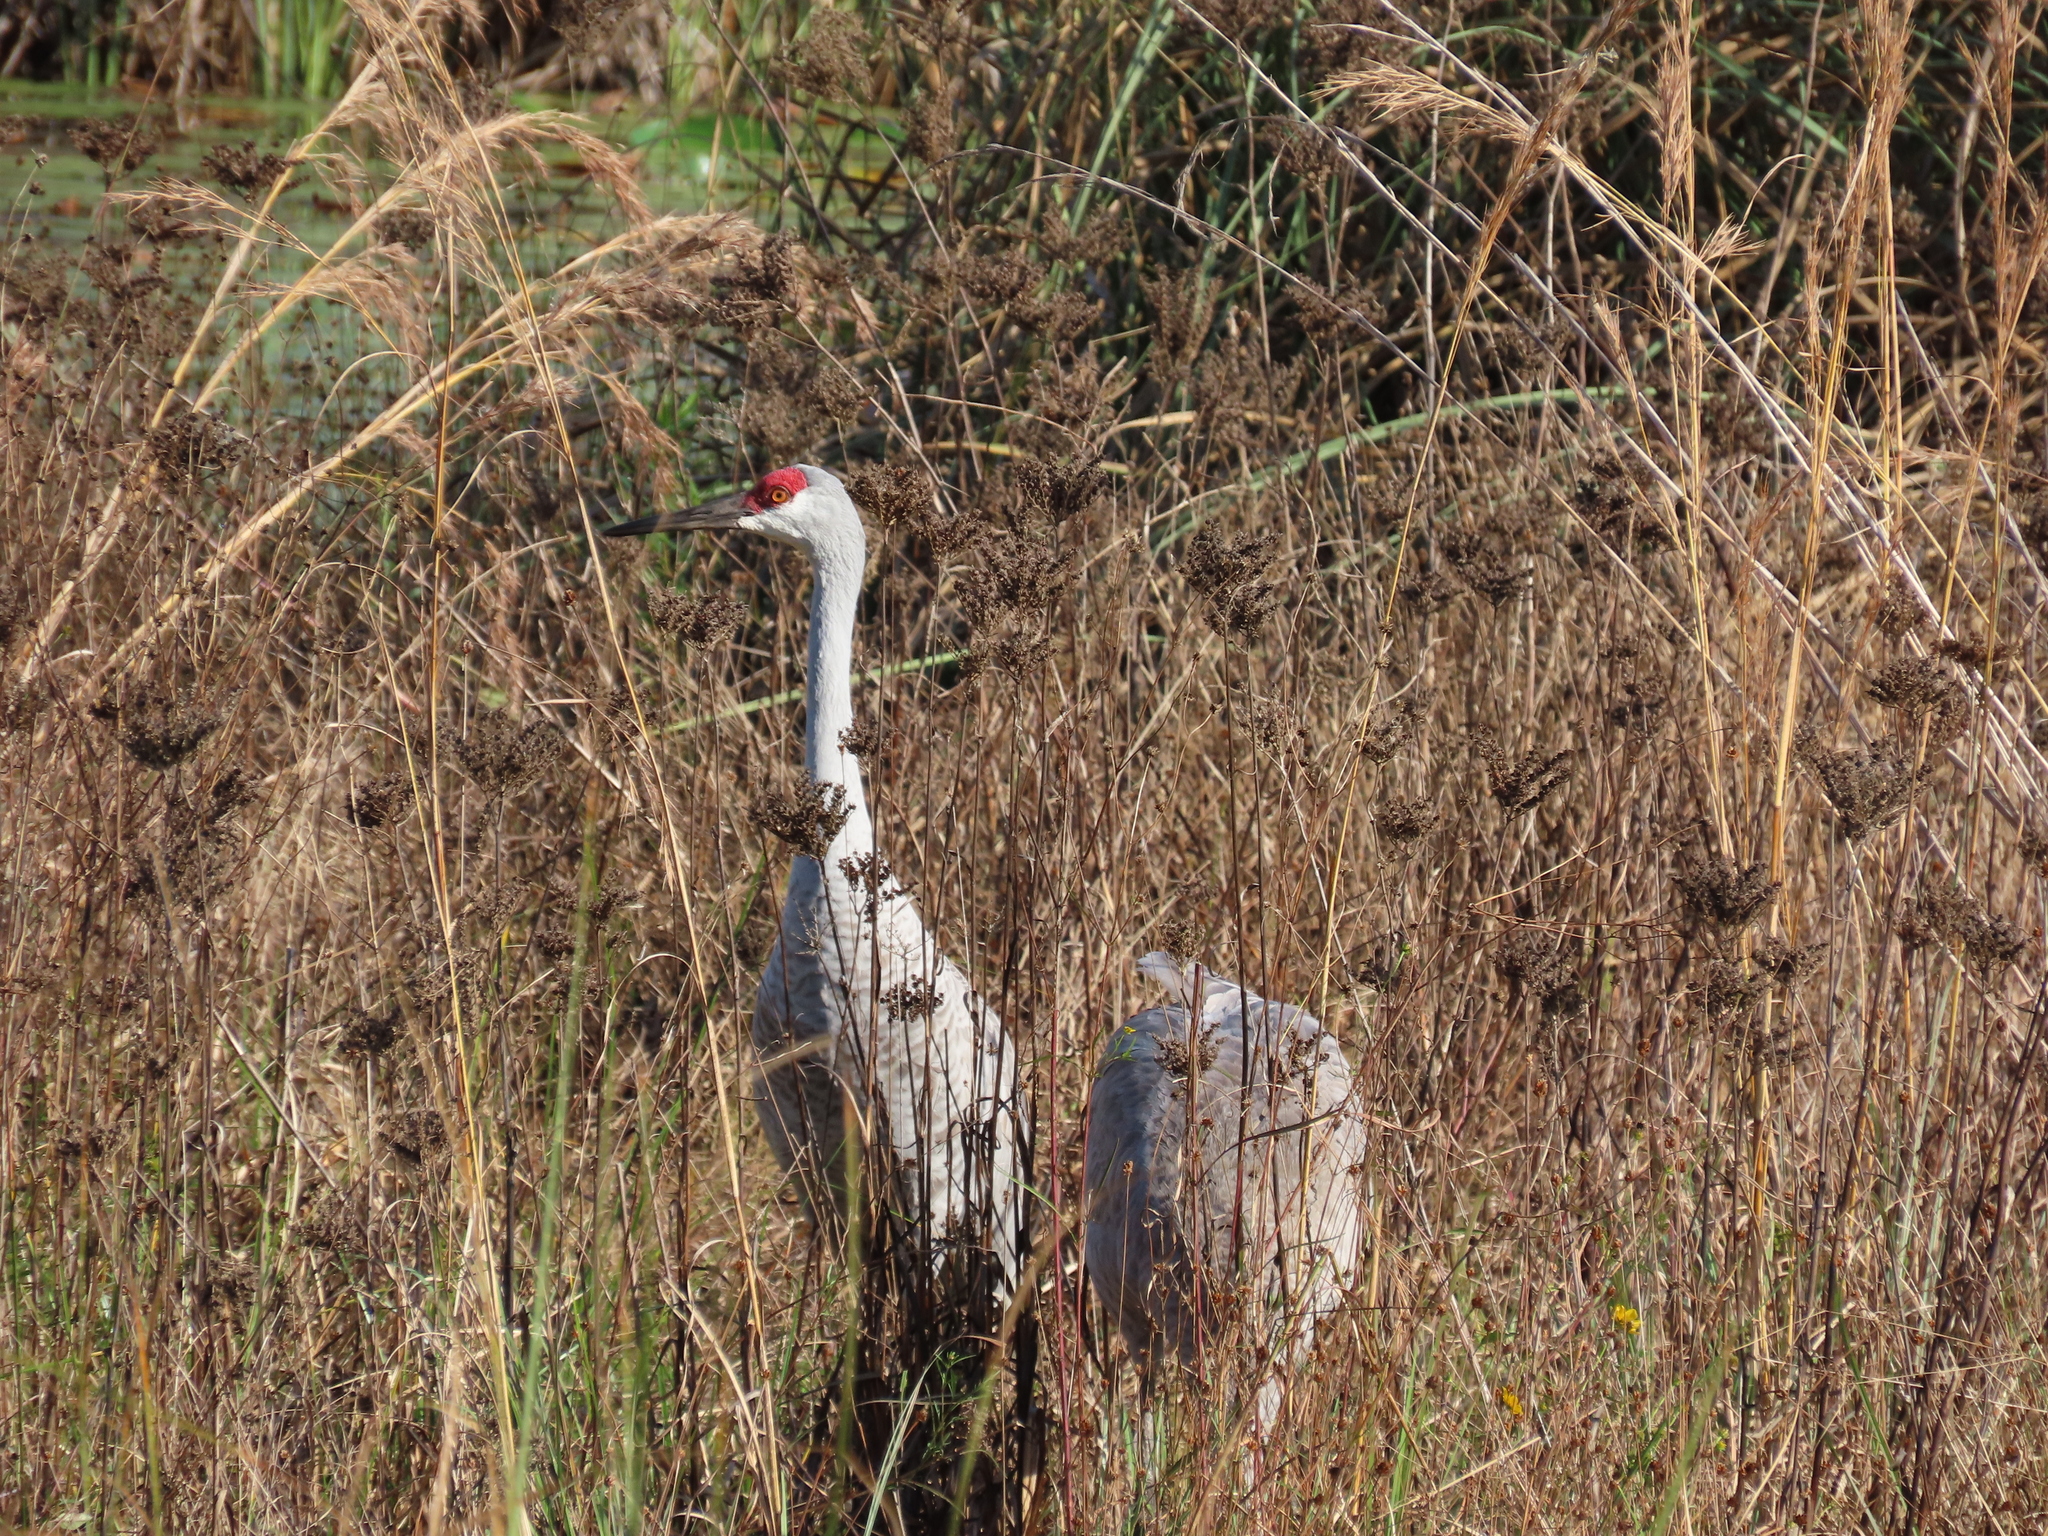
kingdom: Animalia
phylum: Chordata
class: Aves
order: Gruiformes
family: Gruidae
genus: Grus
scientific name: Grus canadensis
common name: Sandhill crane
